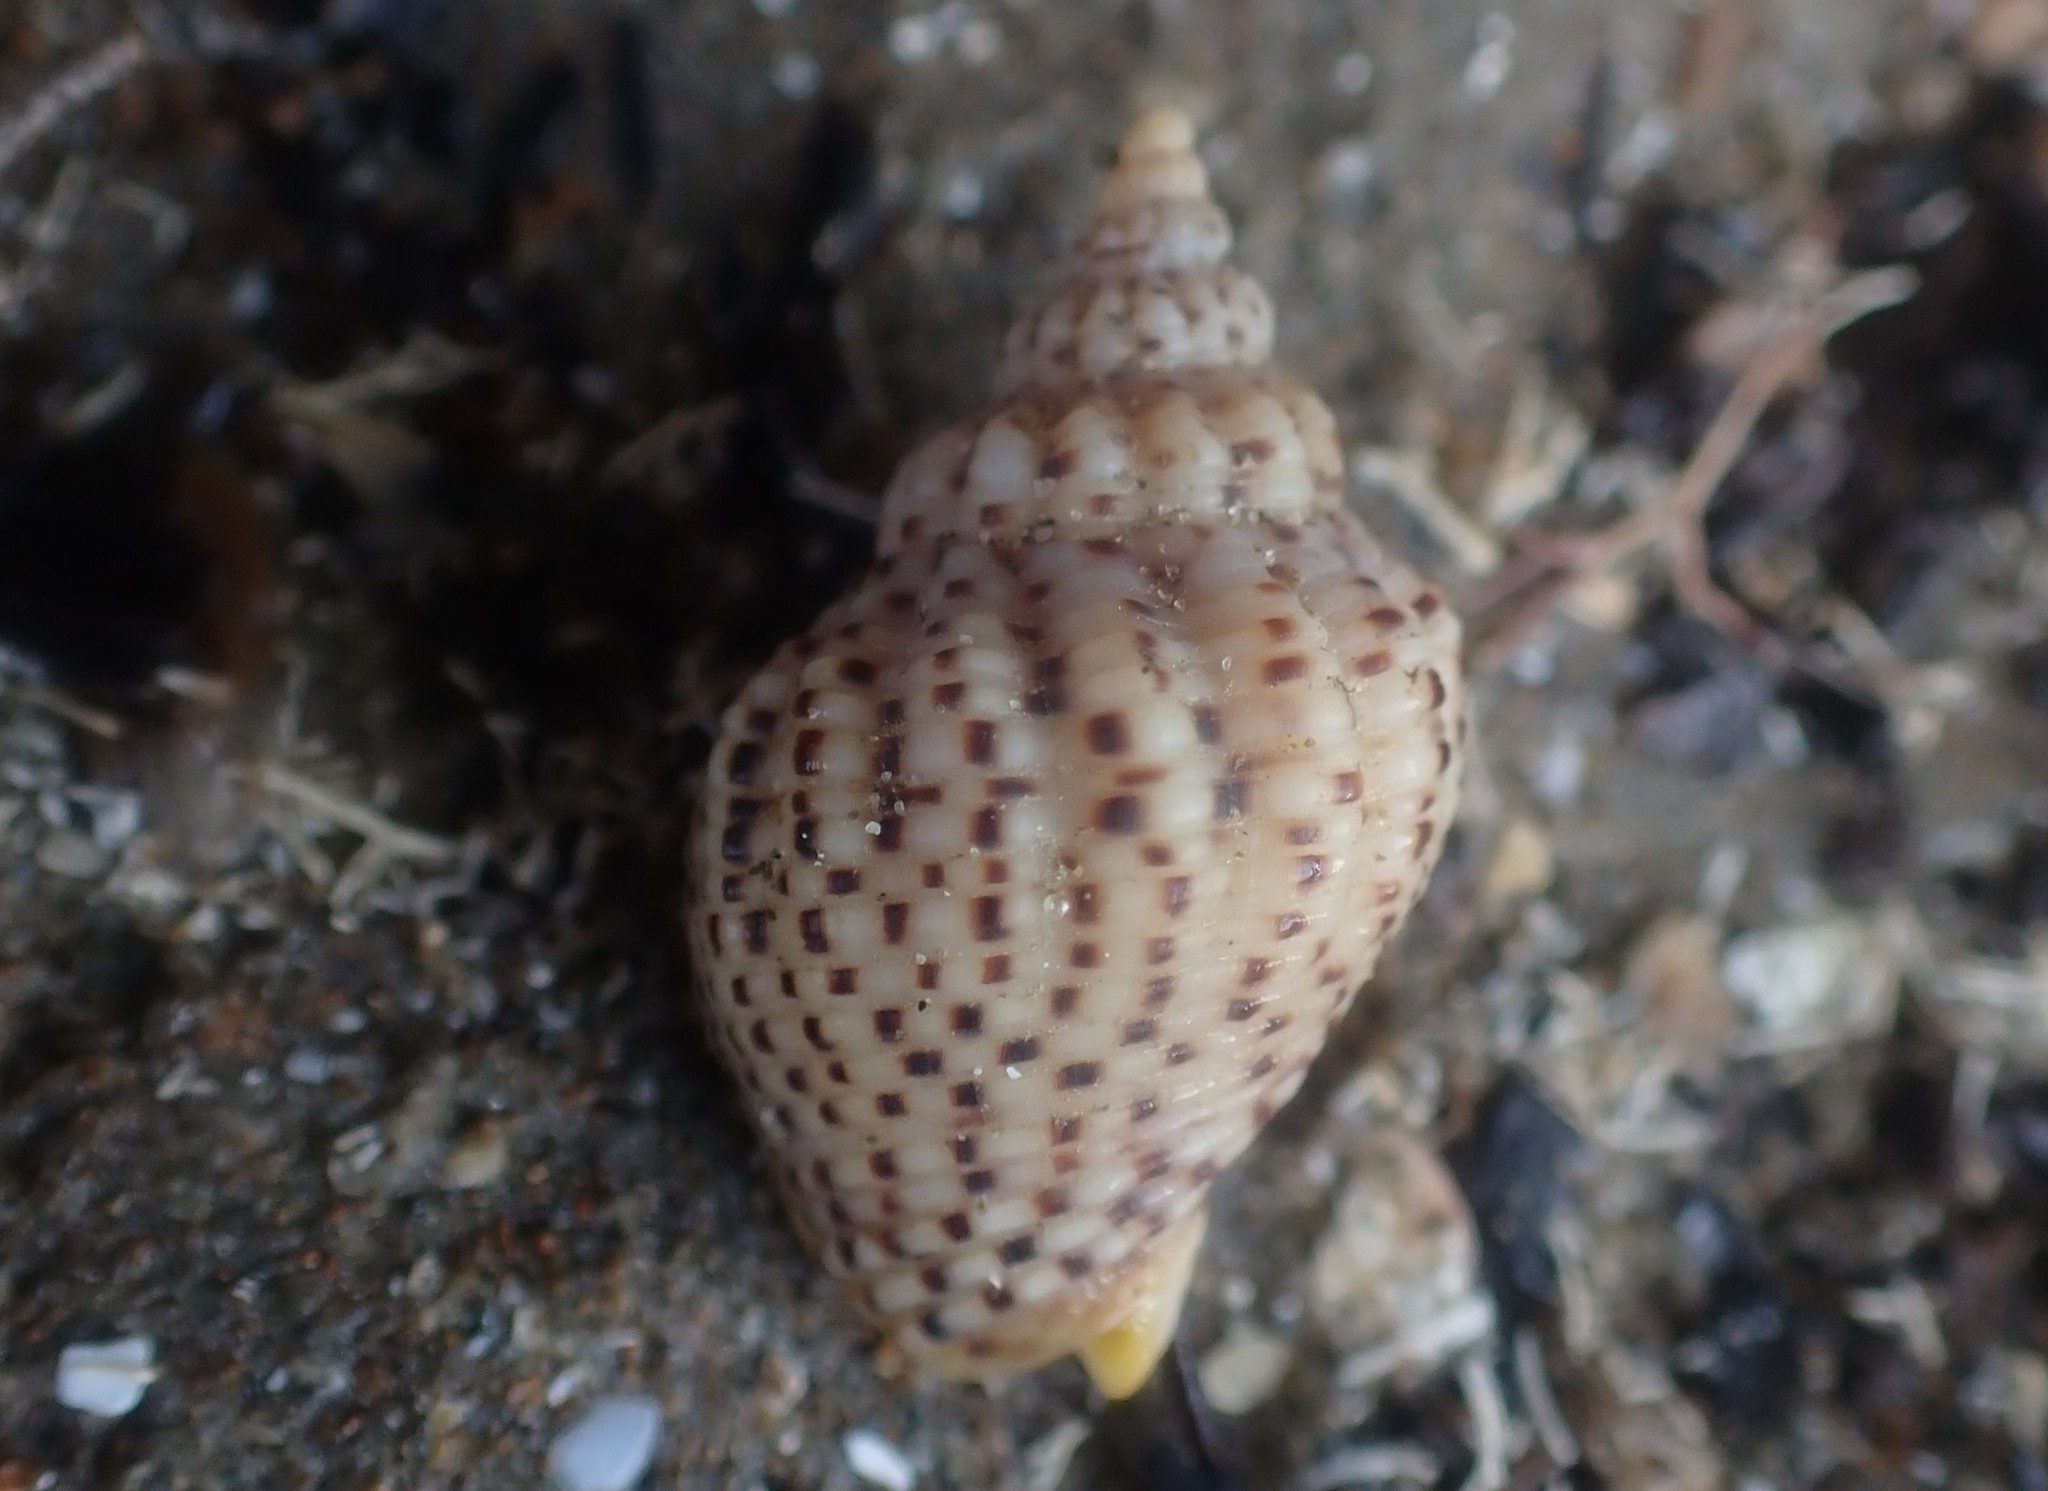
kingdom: Animalia
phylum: Mollusca
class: Gastropoda
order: Neogastropoda
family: Cominellidae
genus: Cominella
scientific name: Cominella adspersa
